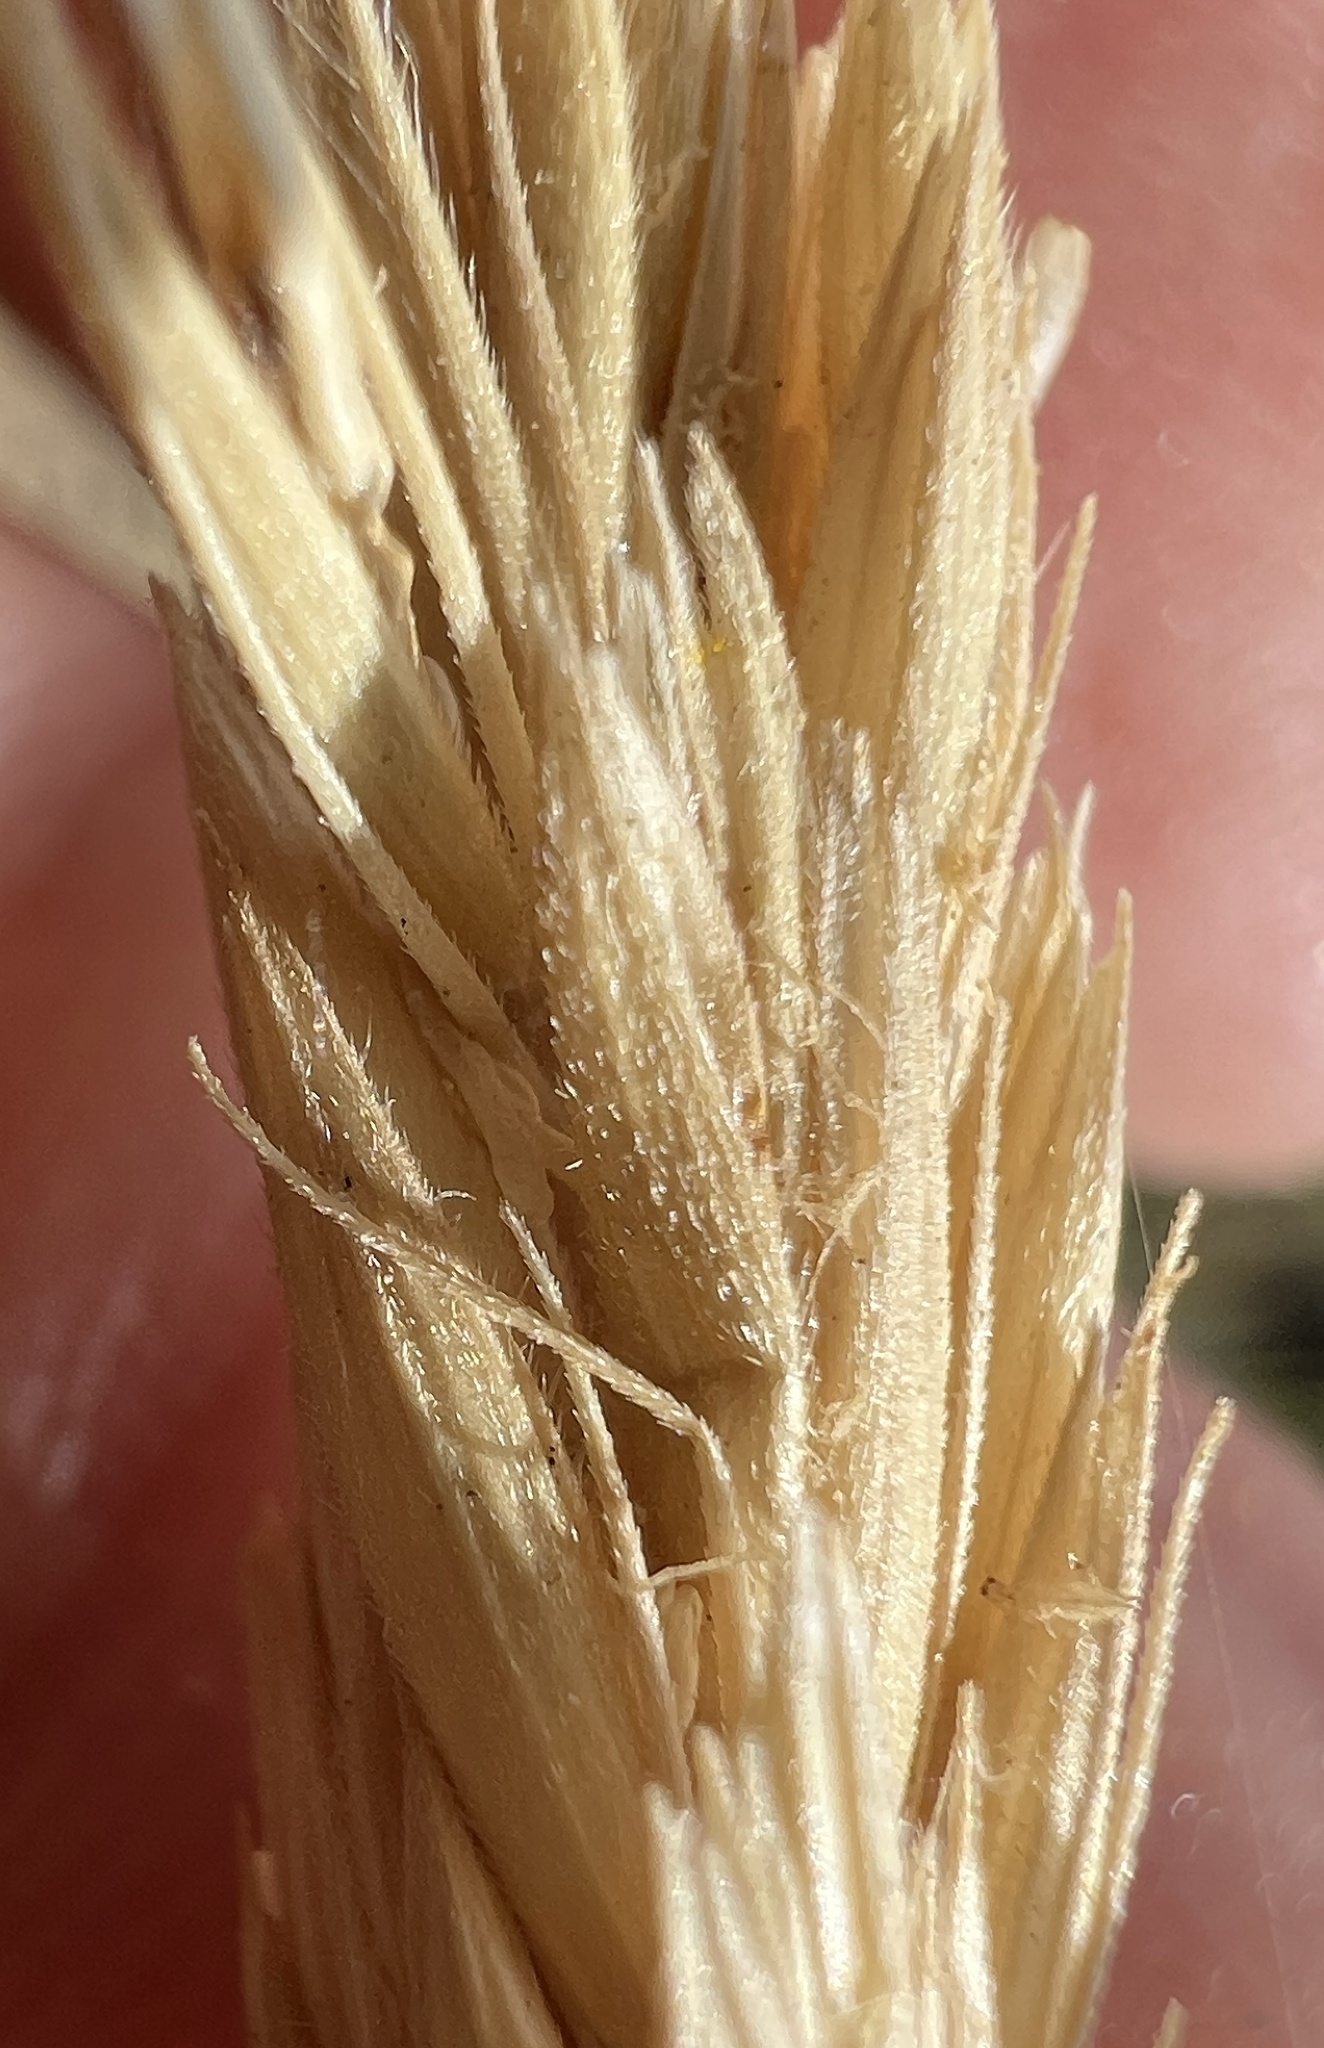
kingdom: Plantae
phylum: Tracheophyta
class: Liliopsida
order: Poales
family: Poaceae
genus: Leymus
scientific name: Leymus cinereus
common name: Basin wild rye
